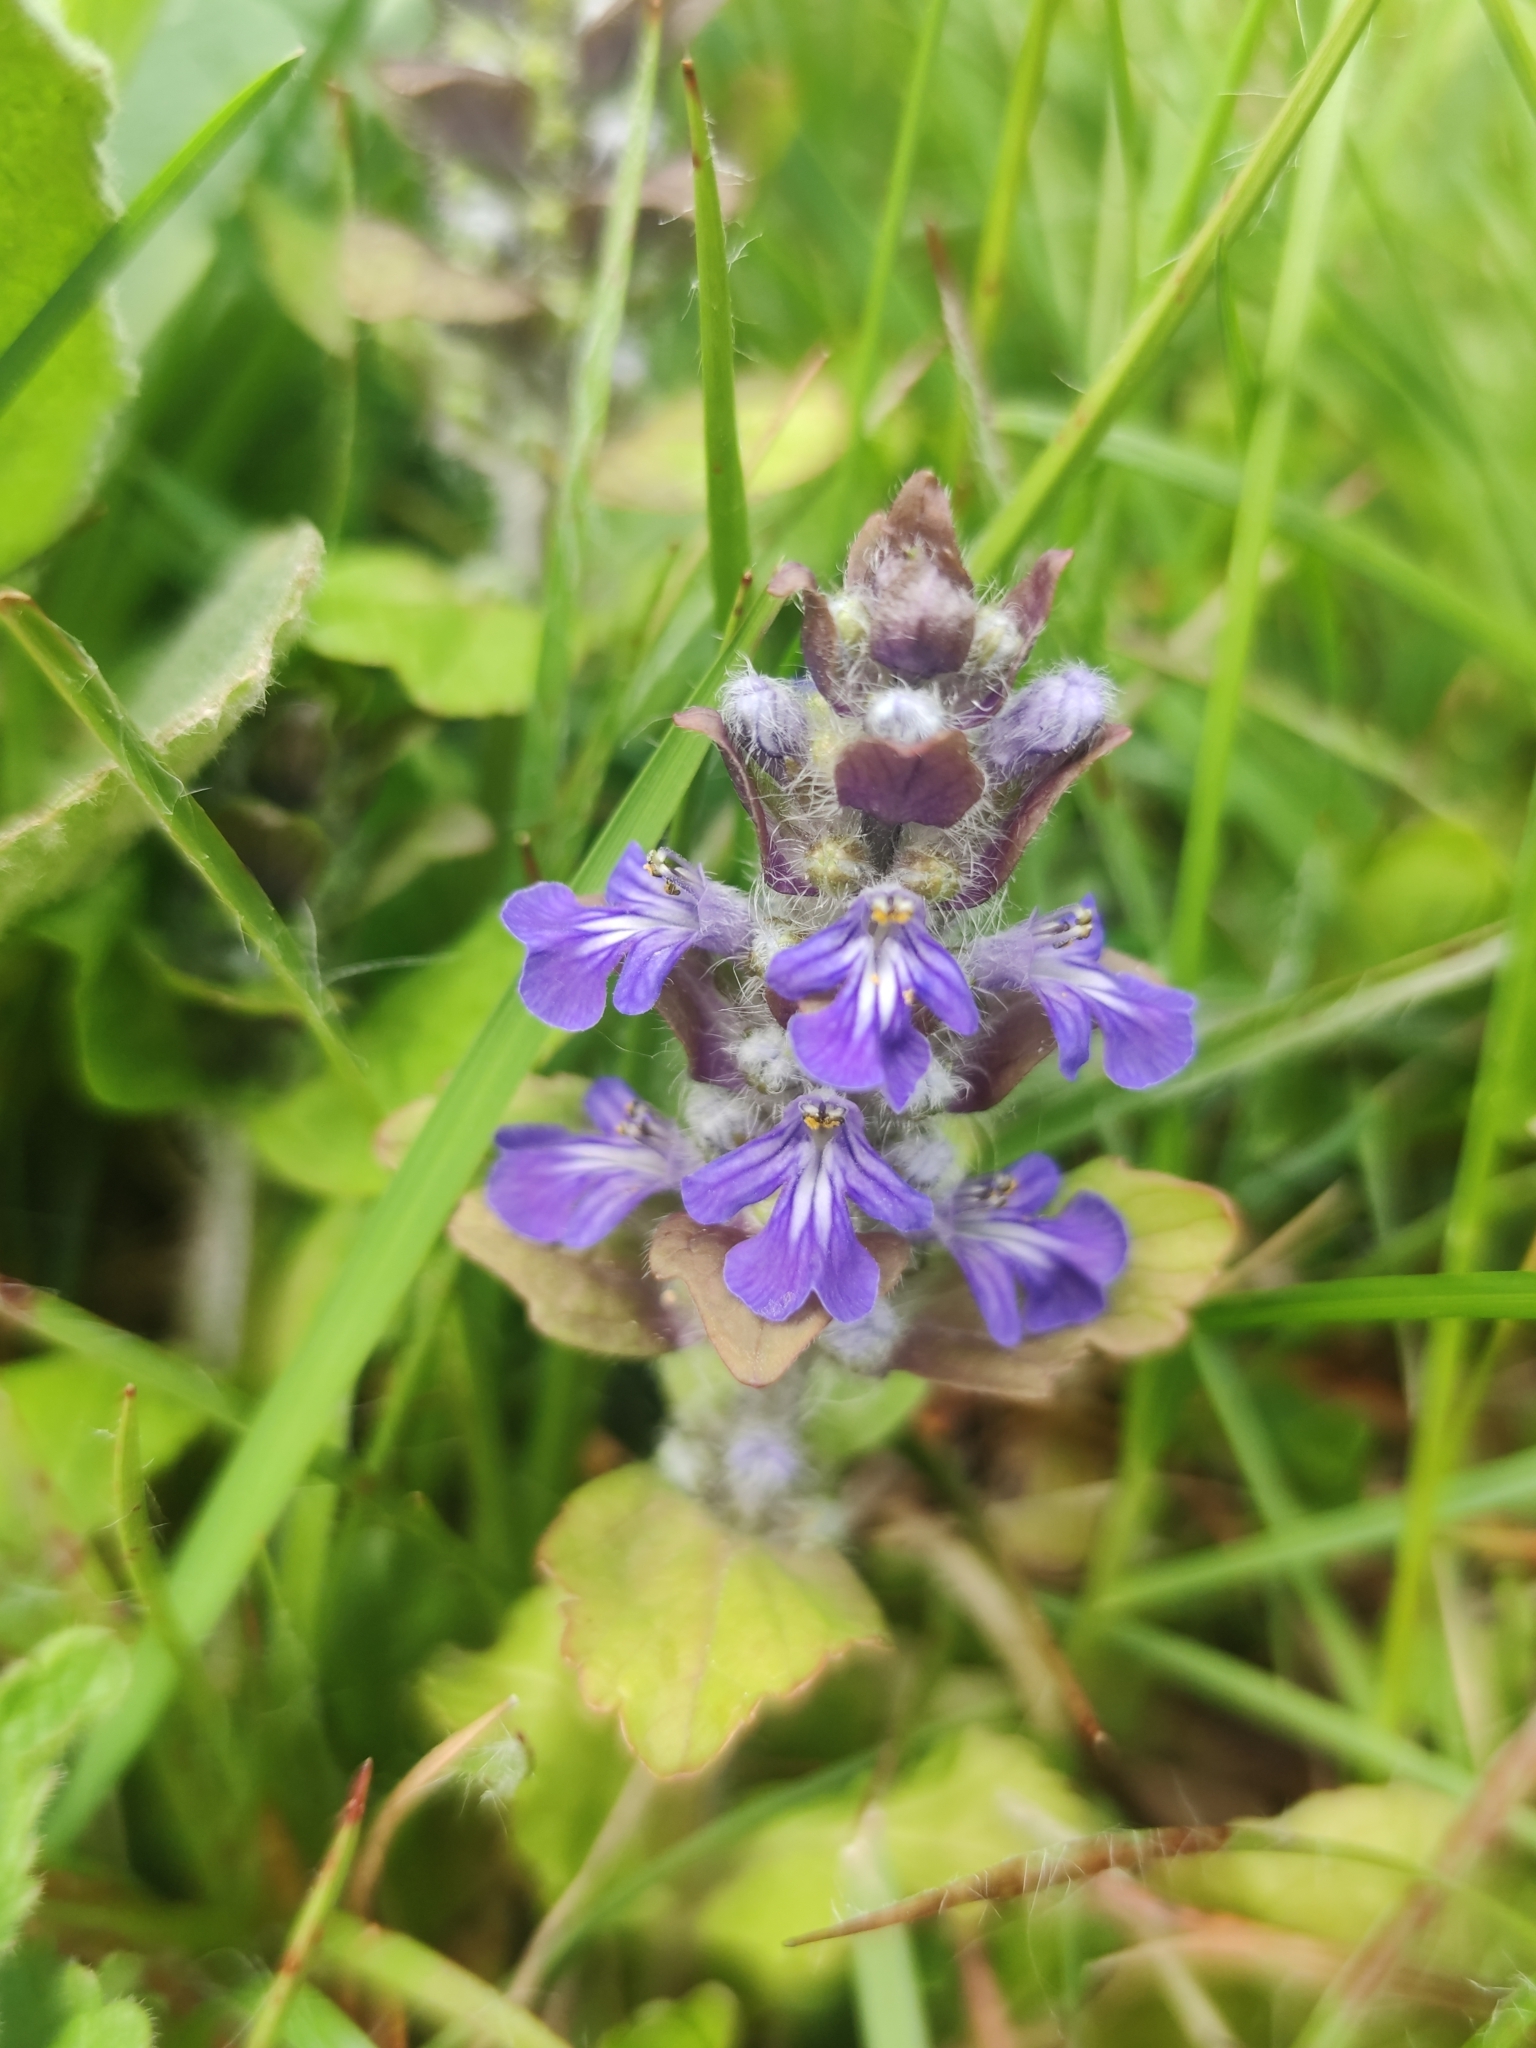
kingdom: Plantae
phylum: Tracheophyta
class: Magnoliopsida
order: Lamiales
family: Lamiaceae
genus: Ajuga
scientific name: Ajuga reptans
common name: Bugle
